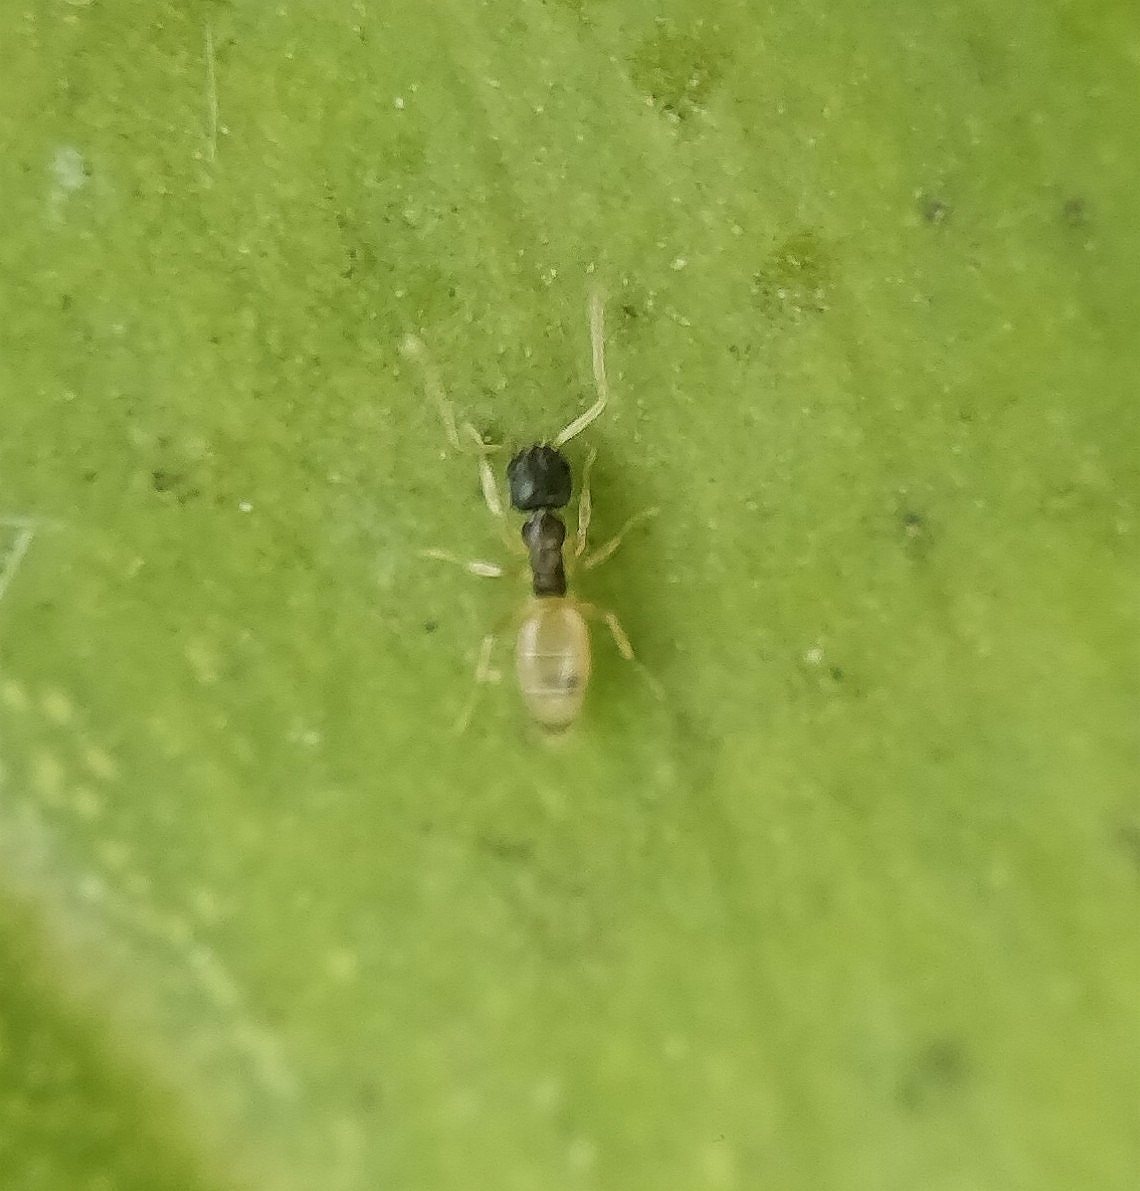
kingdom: Animalia
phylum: Arthropoda
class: Insecta
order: Hymenoptera
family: Formicidae
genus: Tapinoma
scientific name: Tapinoma melanocephalum
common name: Ghost ant
